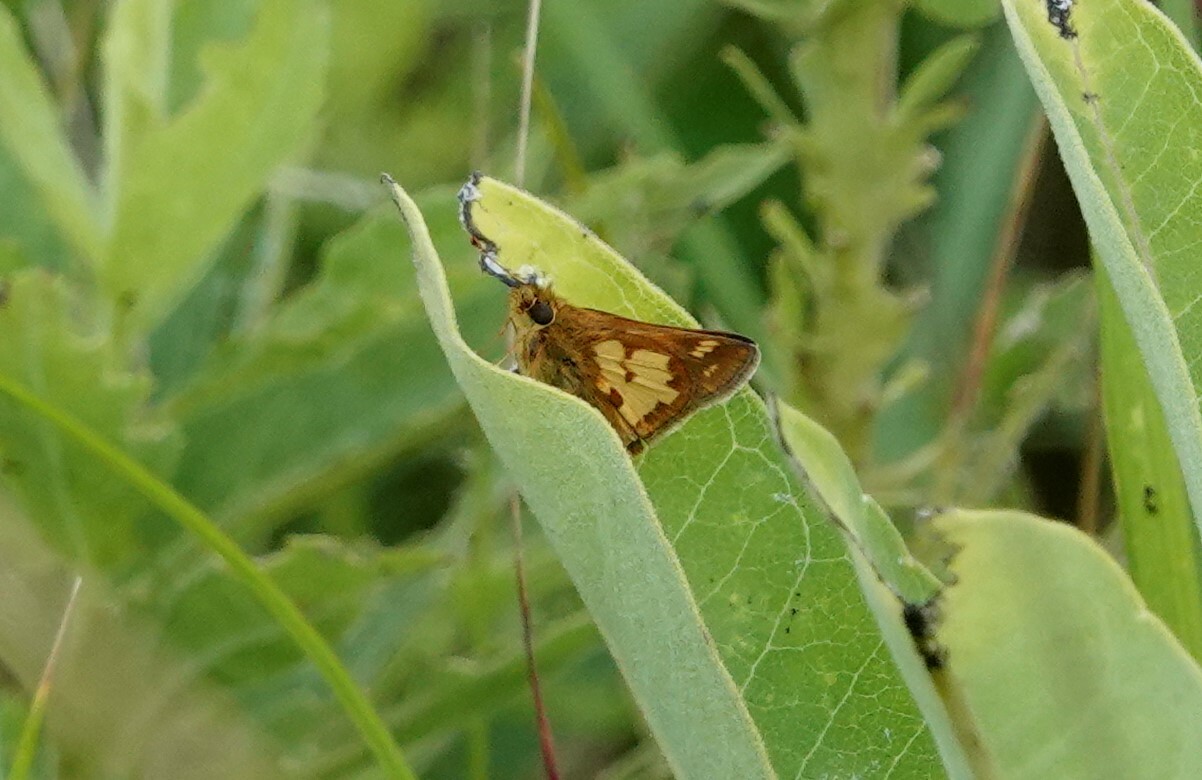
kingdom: Animalia
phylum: Arthropoda
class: Insecta
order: Lepidoptera
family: Hesperiidae
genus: Polites
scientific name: Polites coras
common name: Peck's skipper
